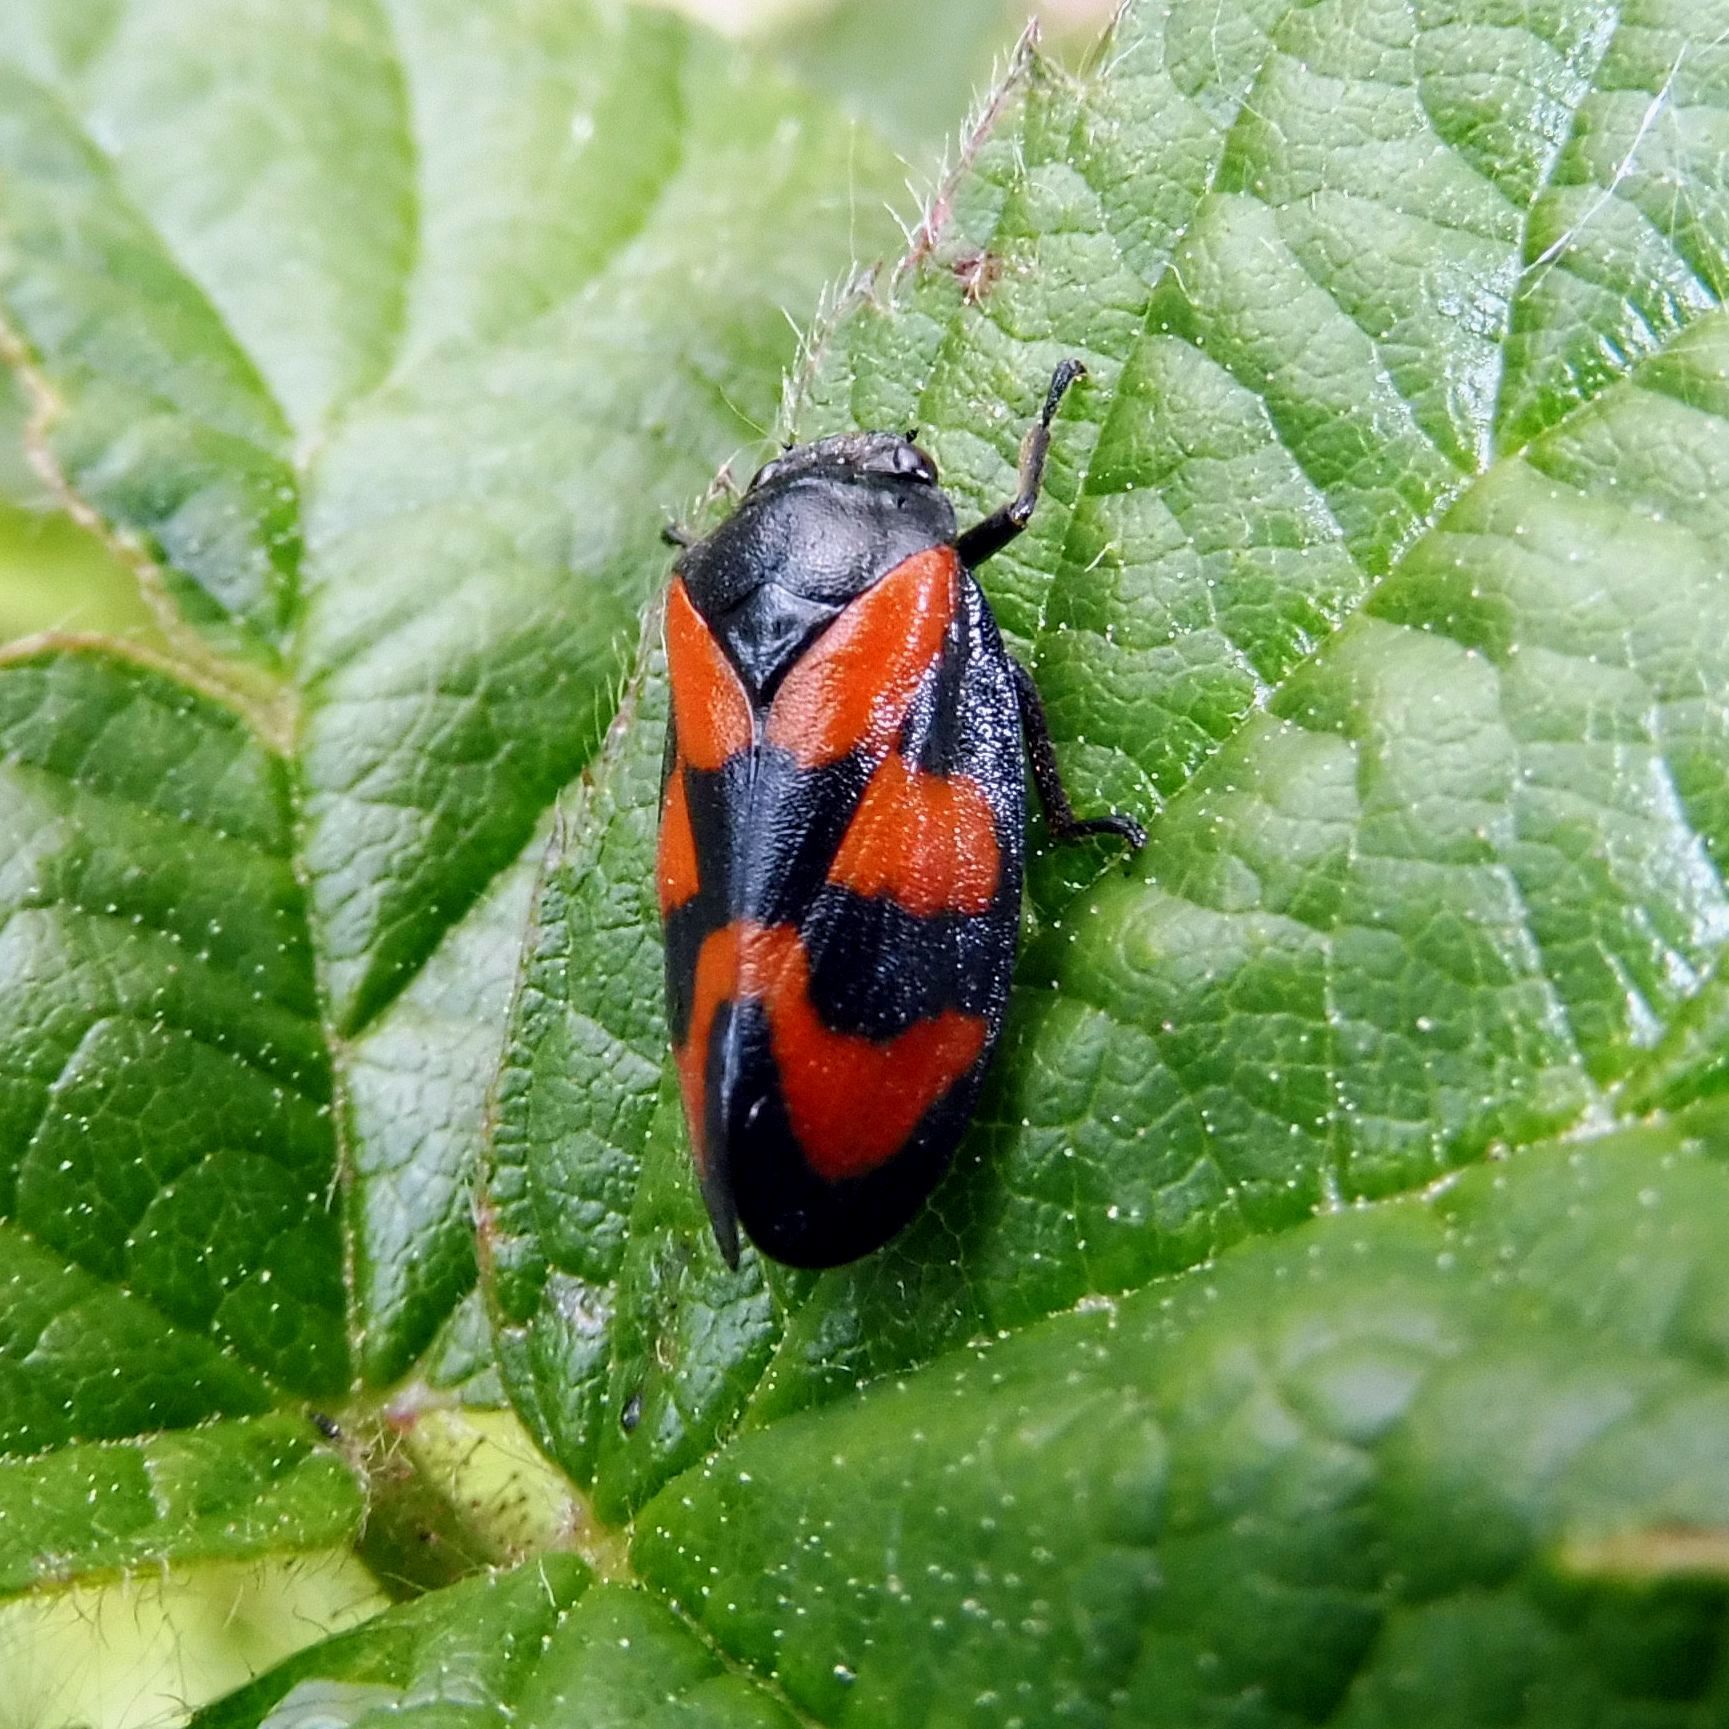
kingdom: Animalia
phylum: Arthropoda
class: Insecta
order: Hemiptera
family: Cercopidae
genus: Cercopis
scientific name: Cercopis vulnerata
